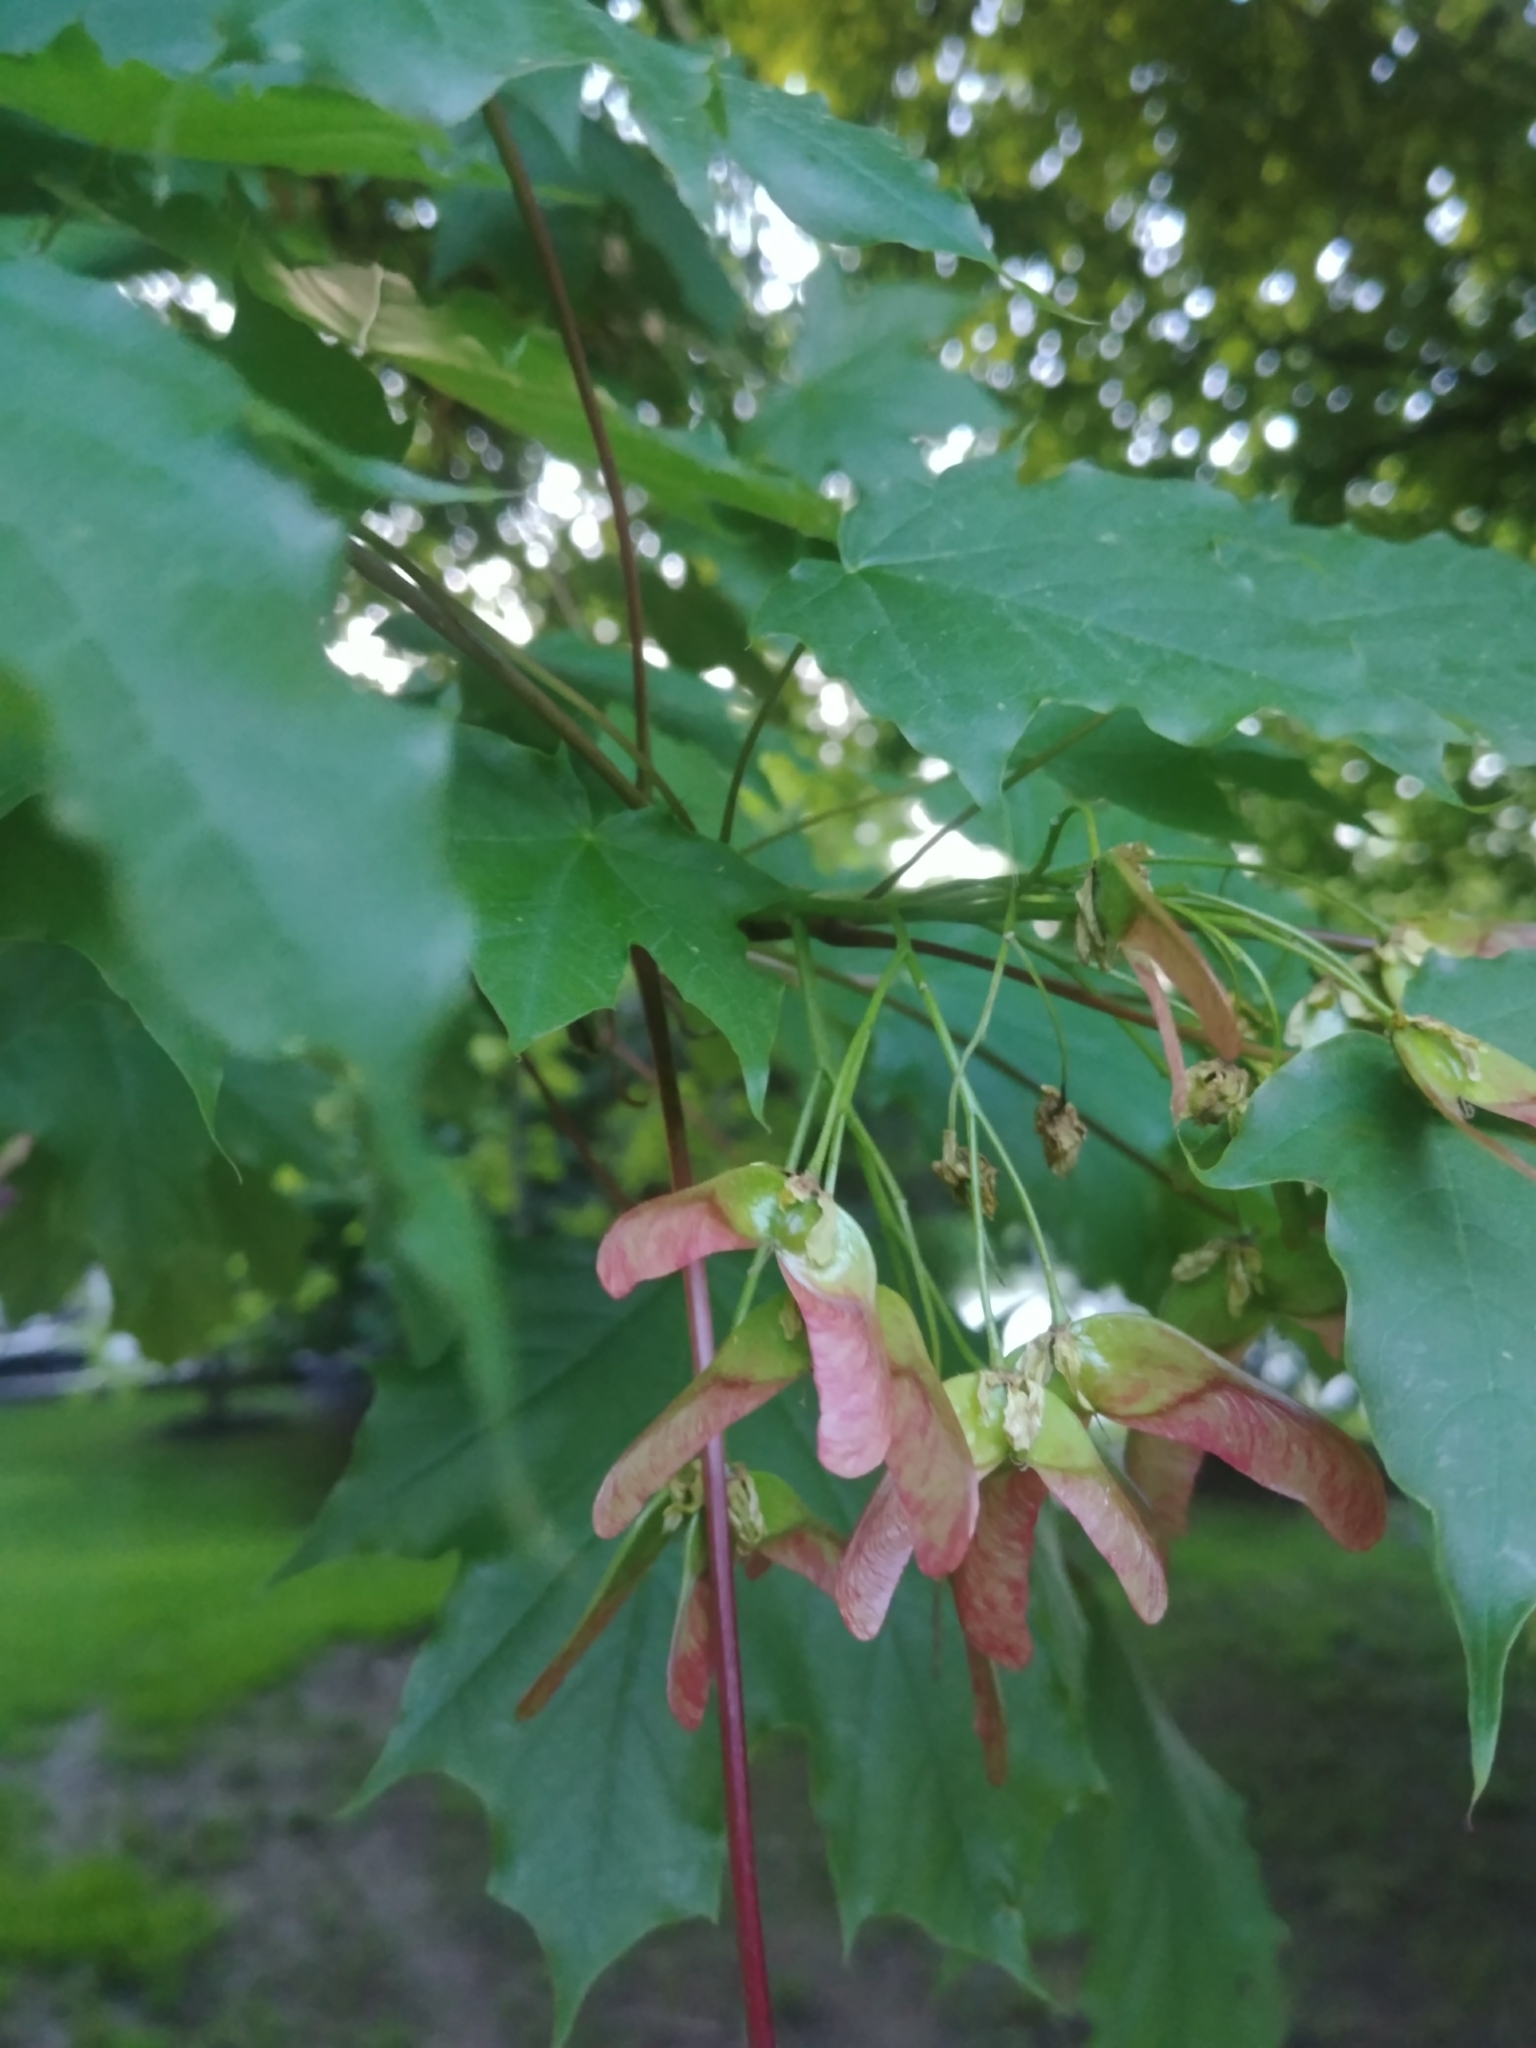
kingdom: Plantae
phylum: Tracheophyta
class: Magnoliopsida
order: Sapindales
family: Sapindaceae
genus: Acer
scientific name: Acer platanoides
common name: Norway maple
